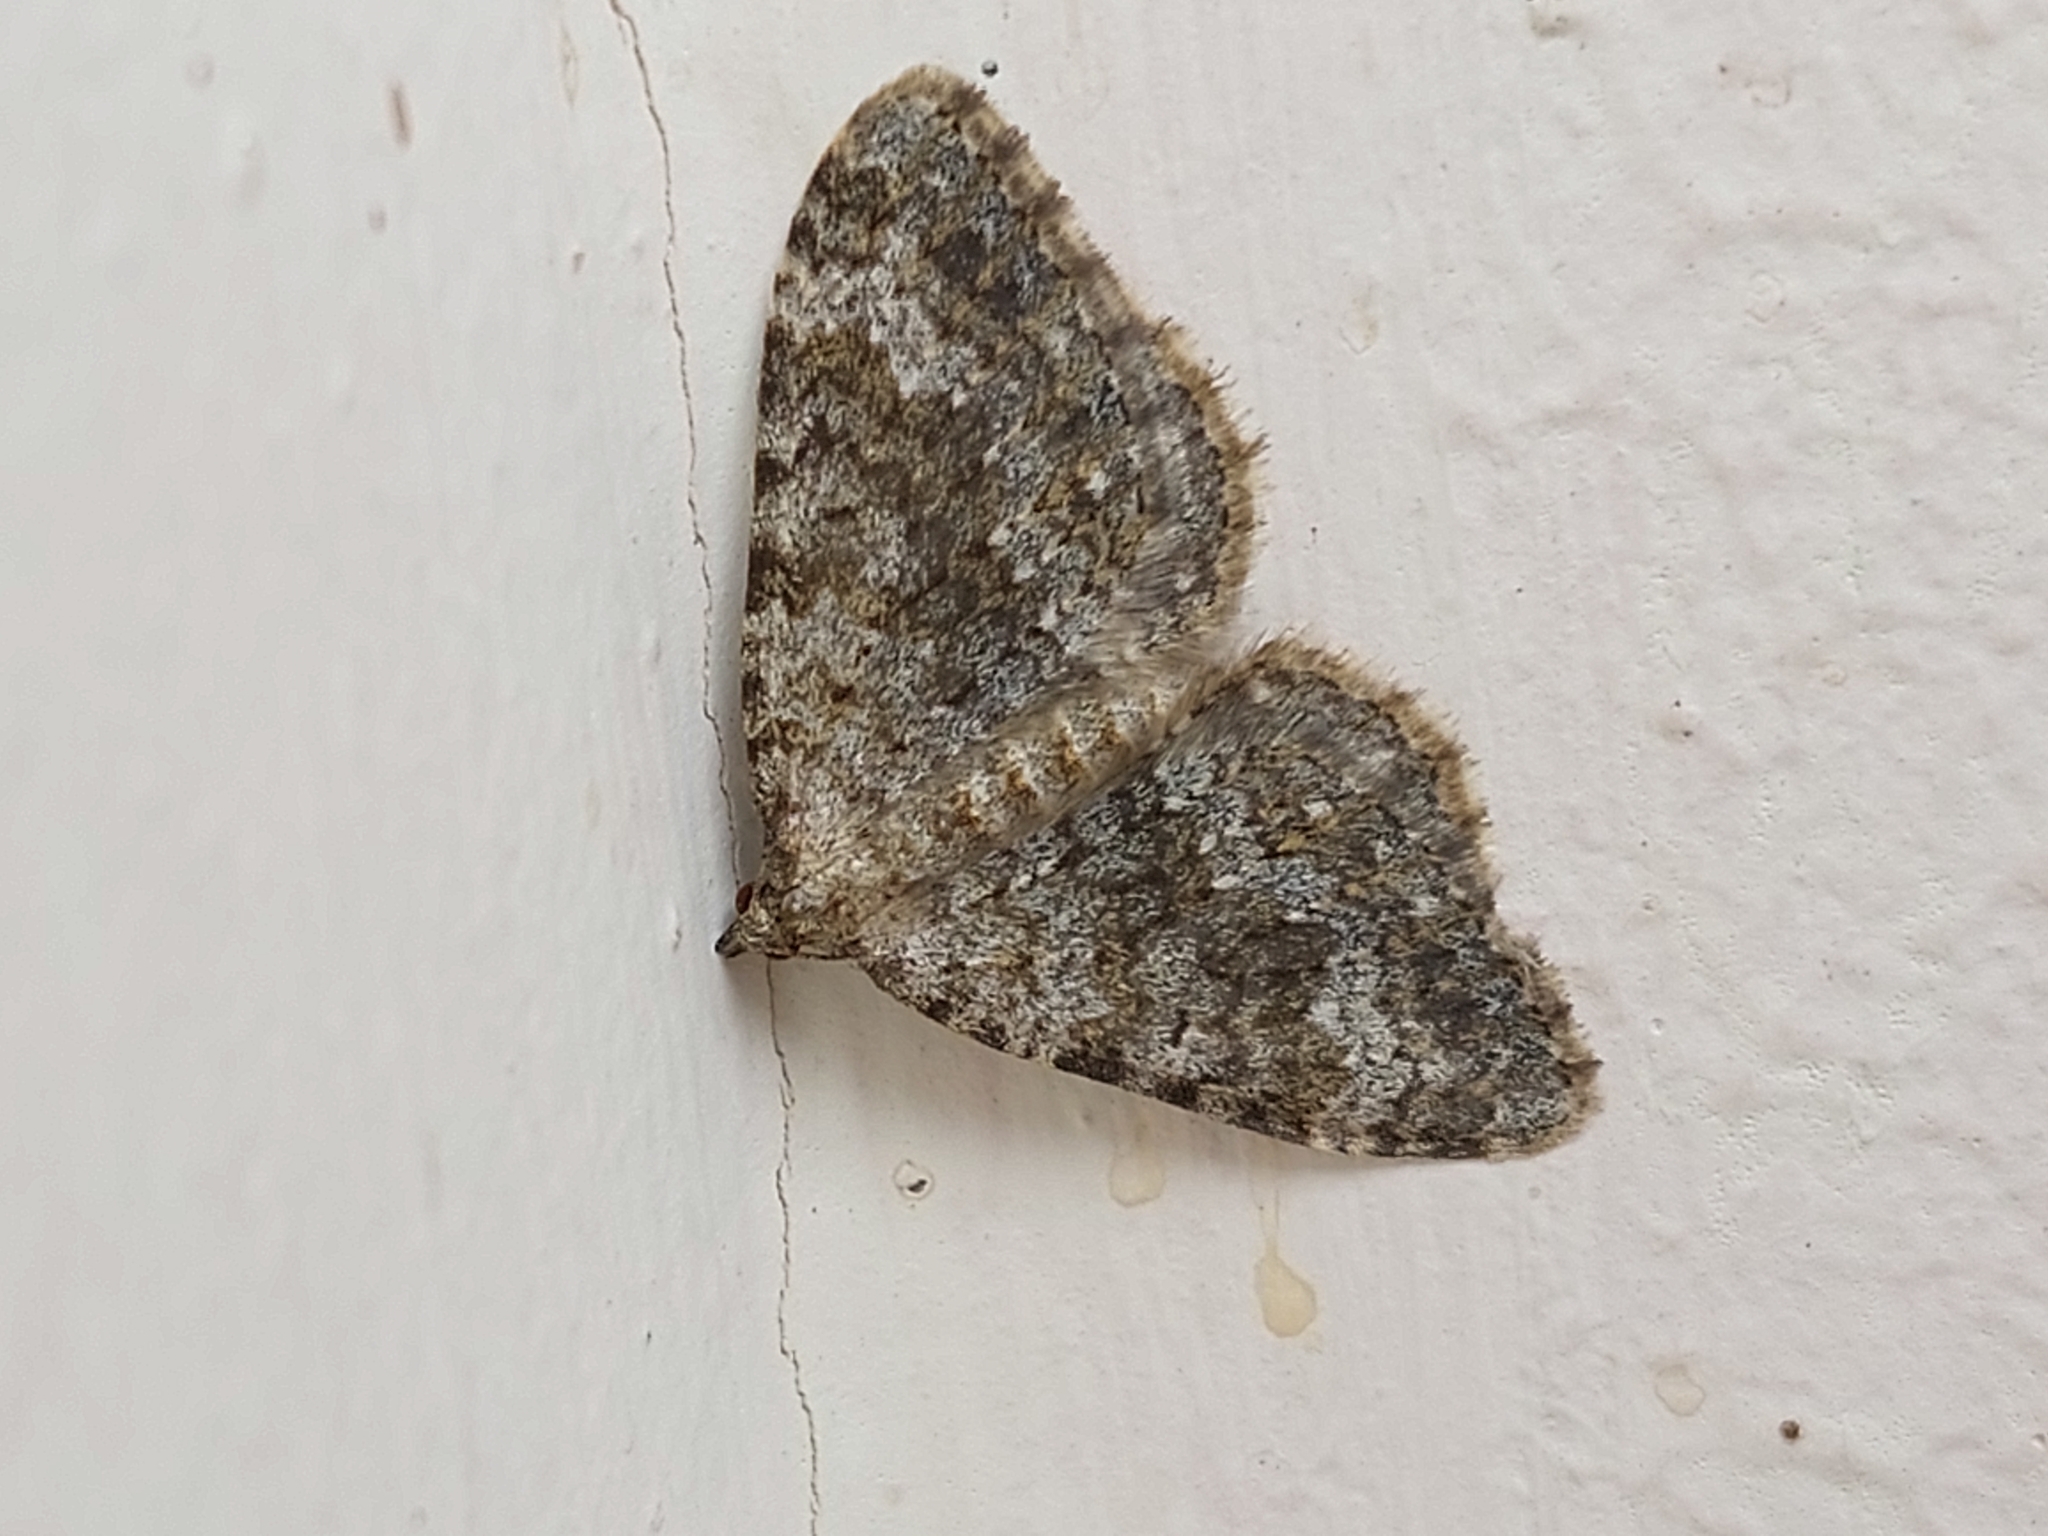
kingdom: Animalia
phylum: Arthropoda
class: Insecta
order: Lepidoptera
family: Geometridae
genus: Nebula
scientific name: Nebula salicata
